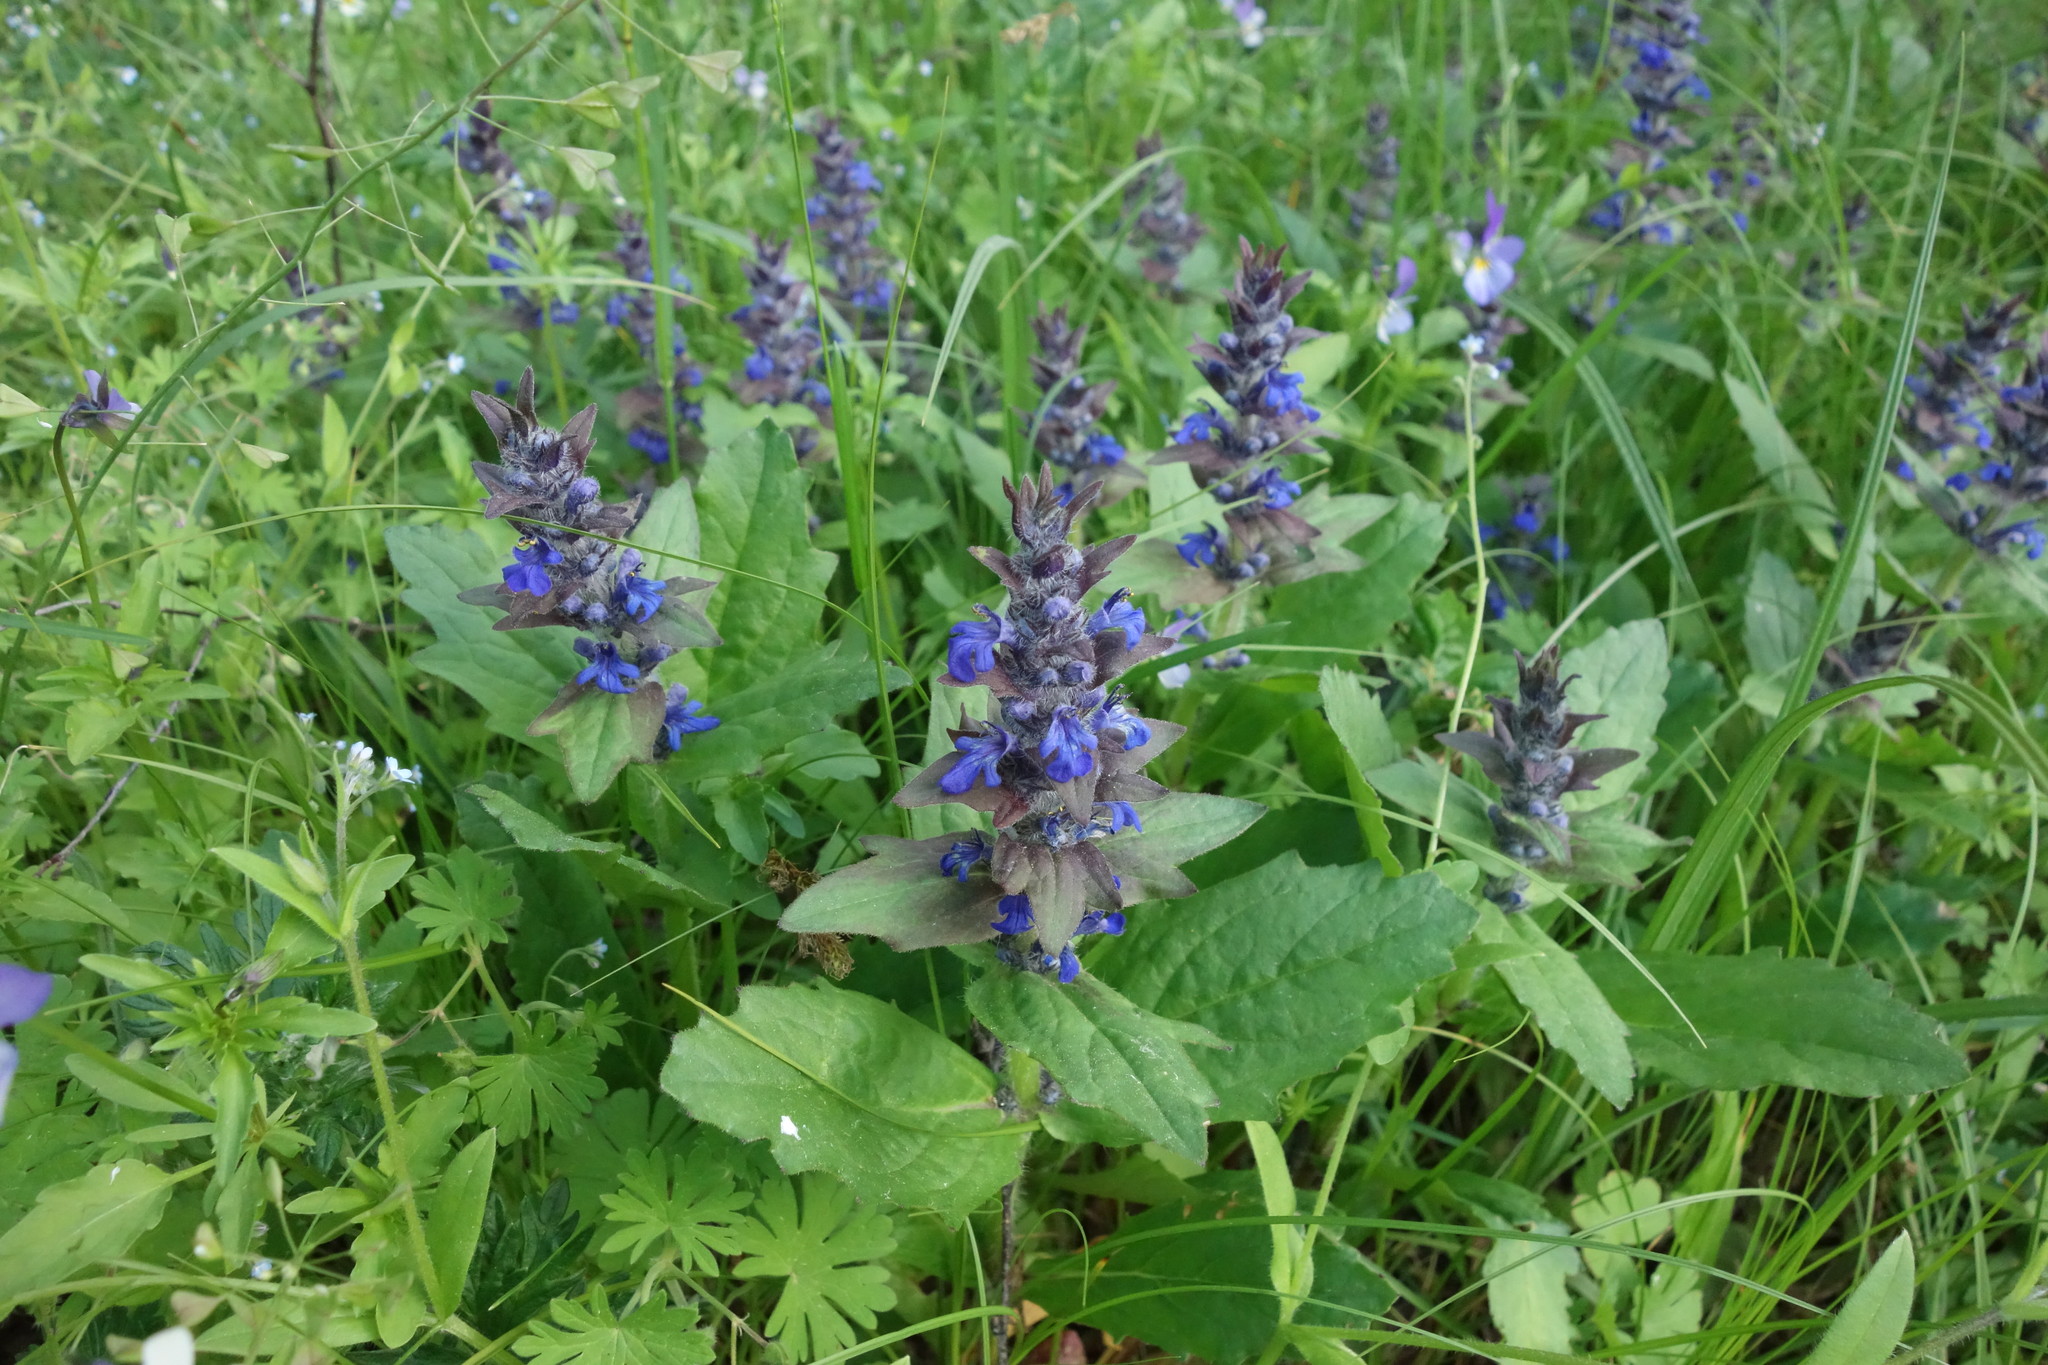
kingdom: Plantae
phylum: Tracheophyta
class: Magnoliopsida
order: Lamiales
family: Lamiaceae
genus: Ajuga
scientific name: Ajuga genevensis
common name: Blue bugle
